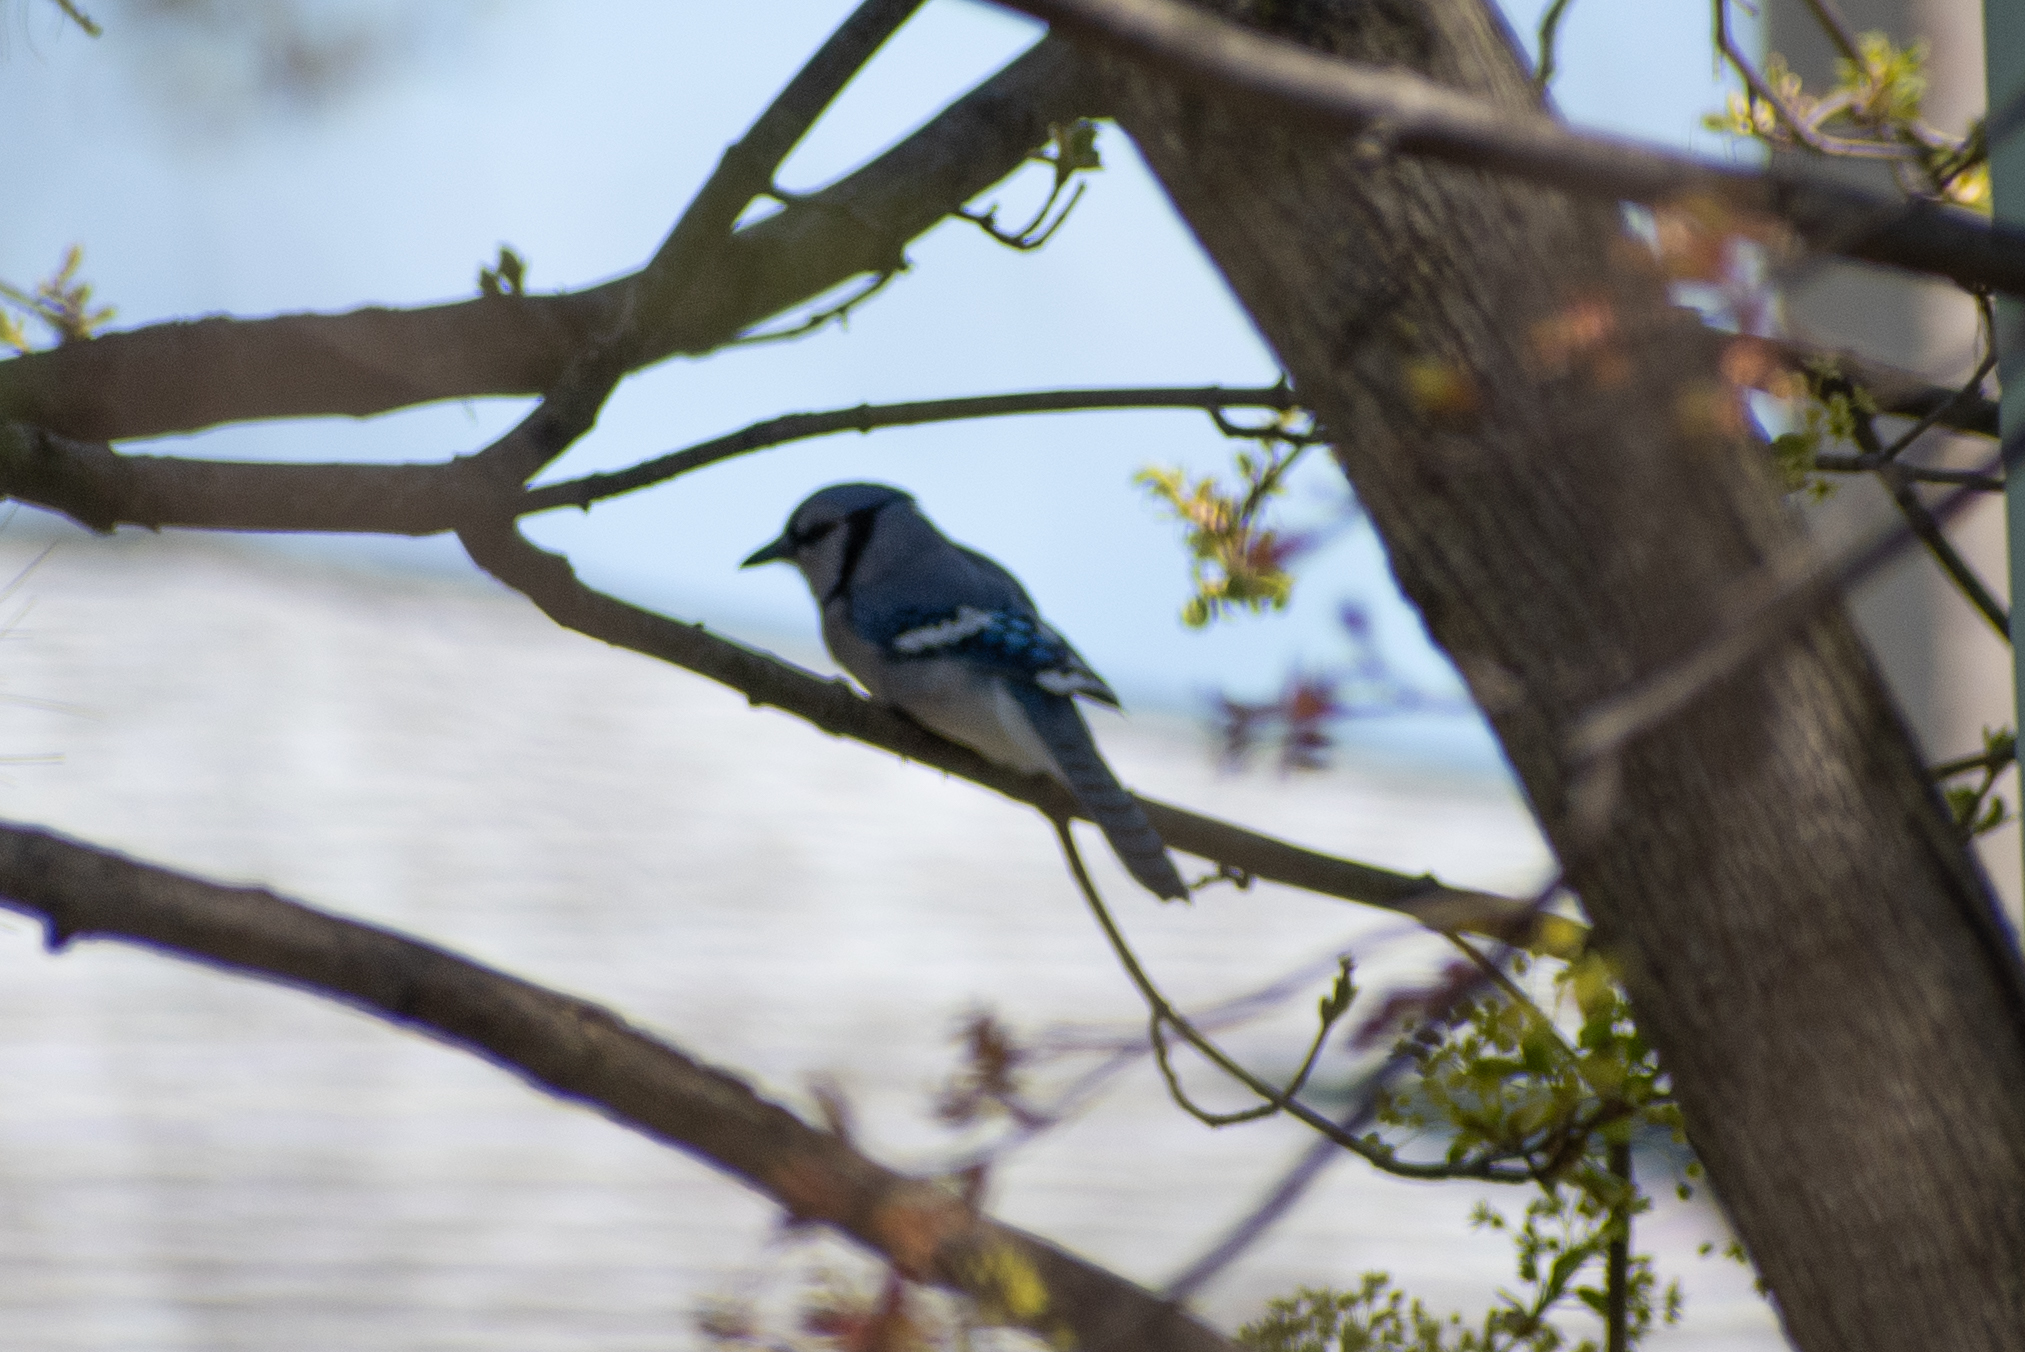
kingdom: Animalia
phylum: Chordata
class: Aves
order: Passeriformes
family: Corvidae
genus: Cyanocitta
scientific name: Cyanocitta cristata
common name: Blue jay
